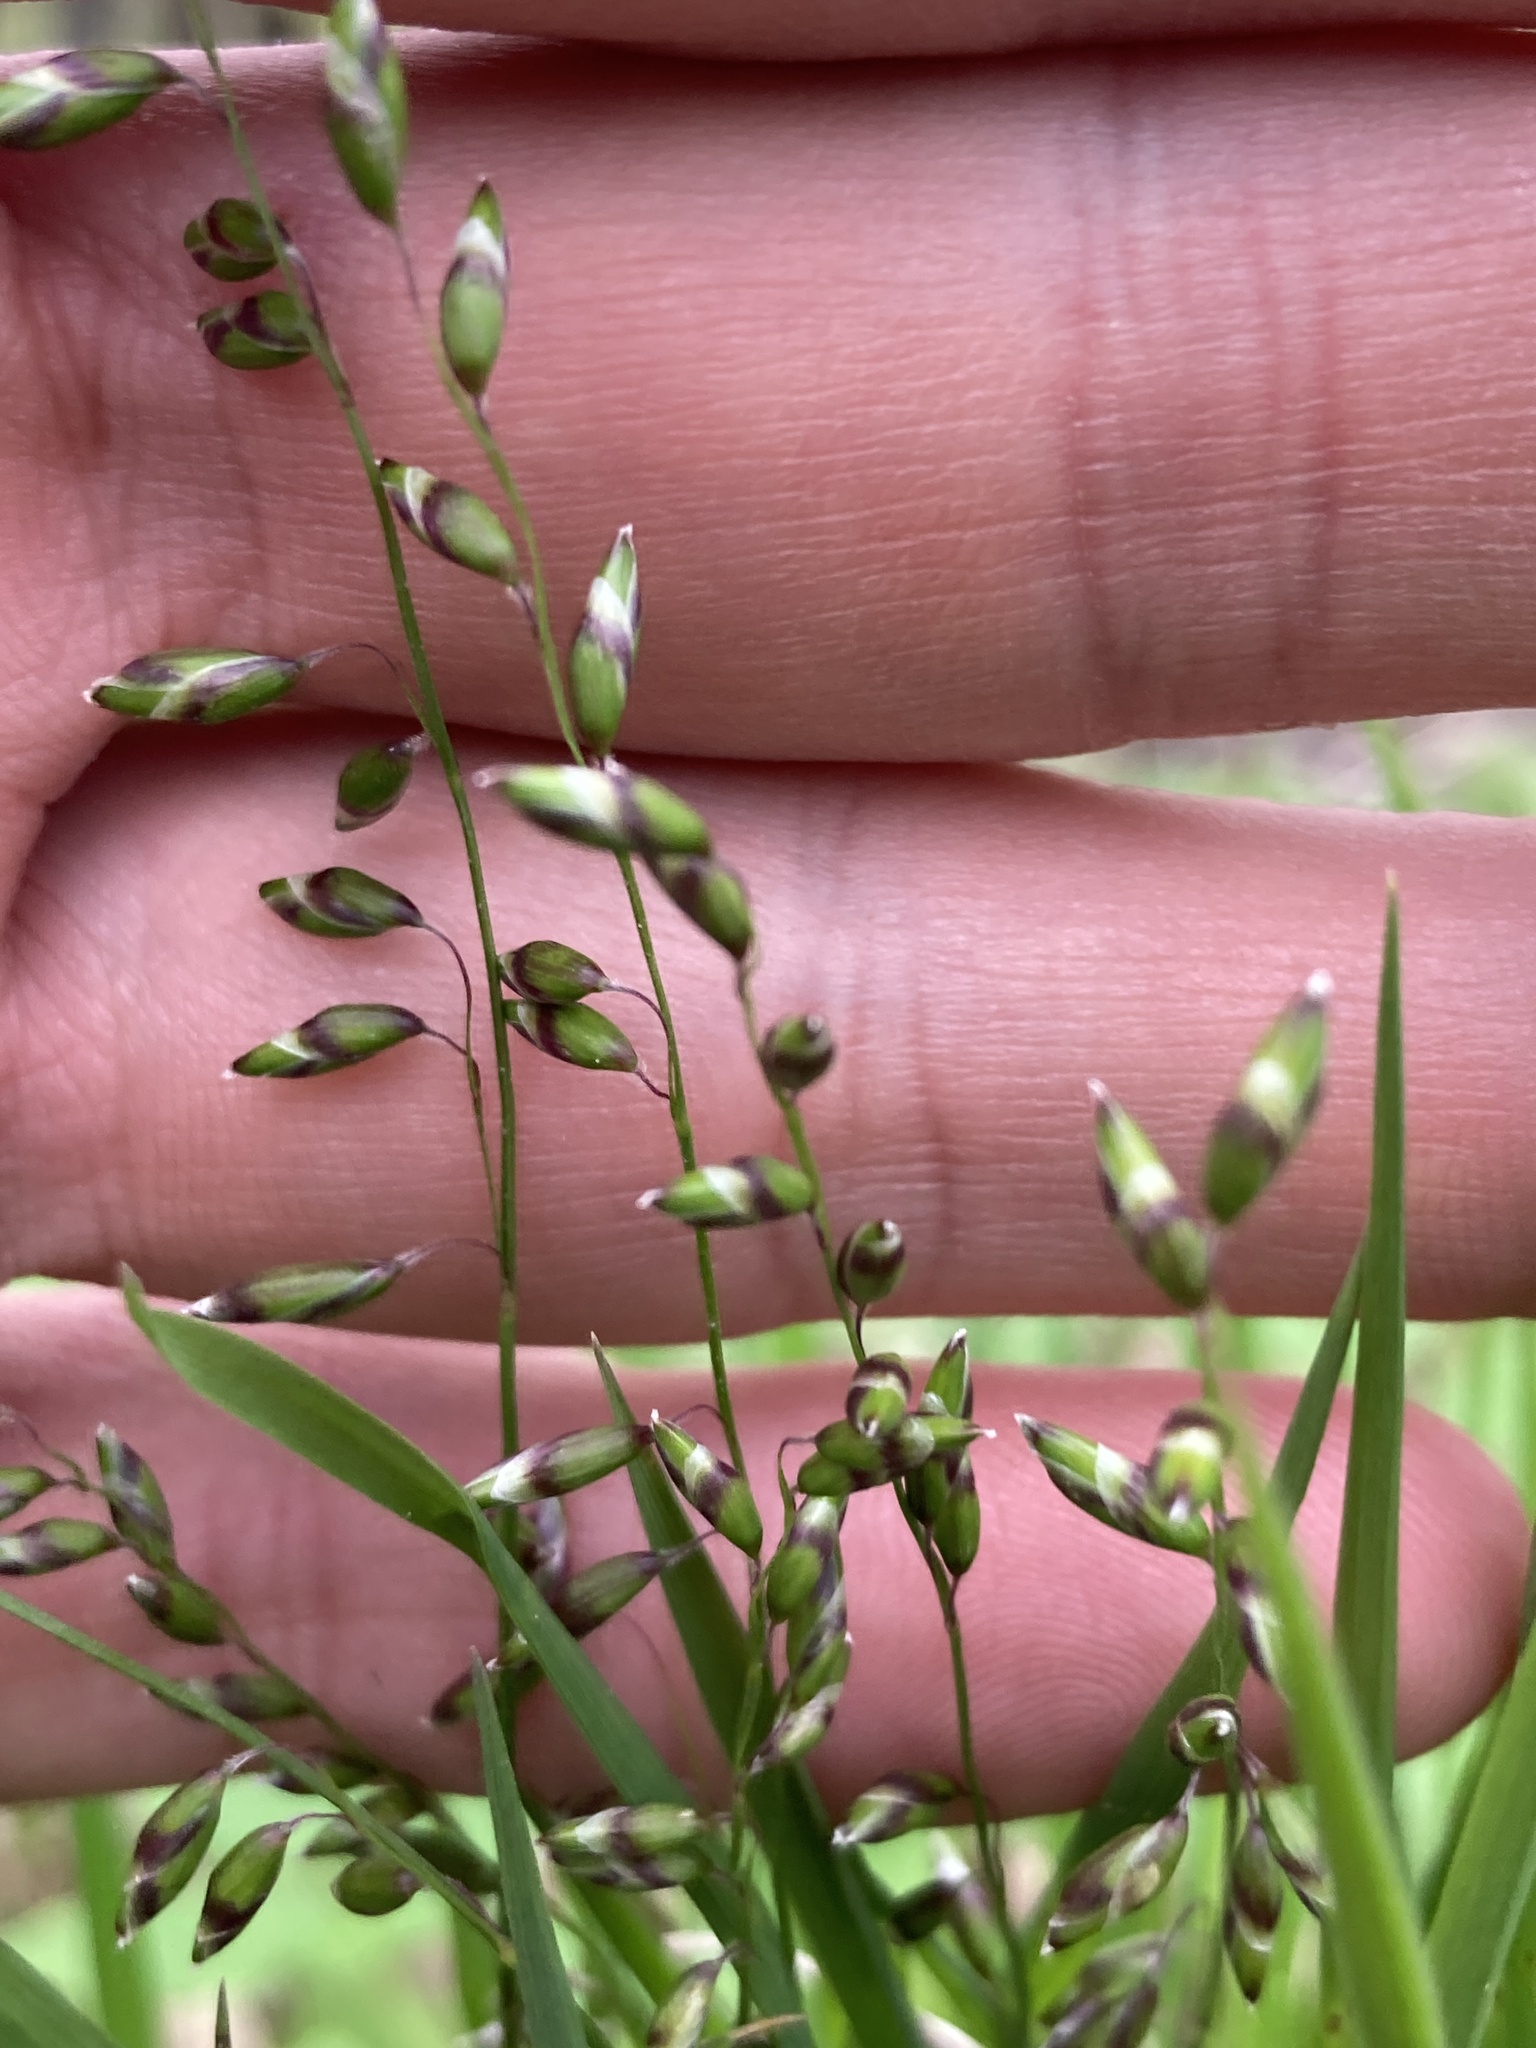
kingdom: Plantae
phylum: Tracheophyta
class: Liliopsida
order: Poales
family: Poaceae
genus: Melica
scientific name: Melica picta
